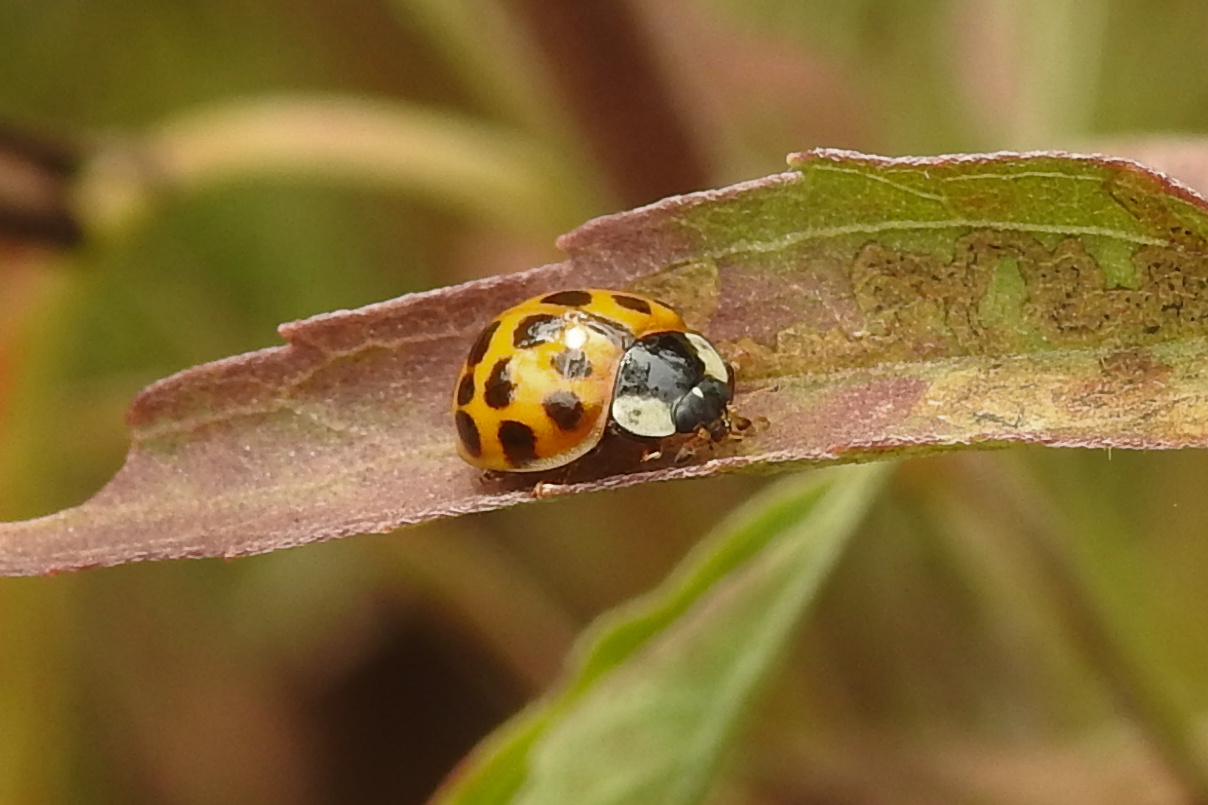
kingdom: Animalia
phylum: Arthropoda
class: Insecta
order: Coleoptera
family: Coccinellidae
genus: Harmonia
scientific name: Harmonia axyridis
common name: Harlequin ladybird
